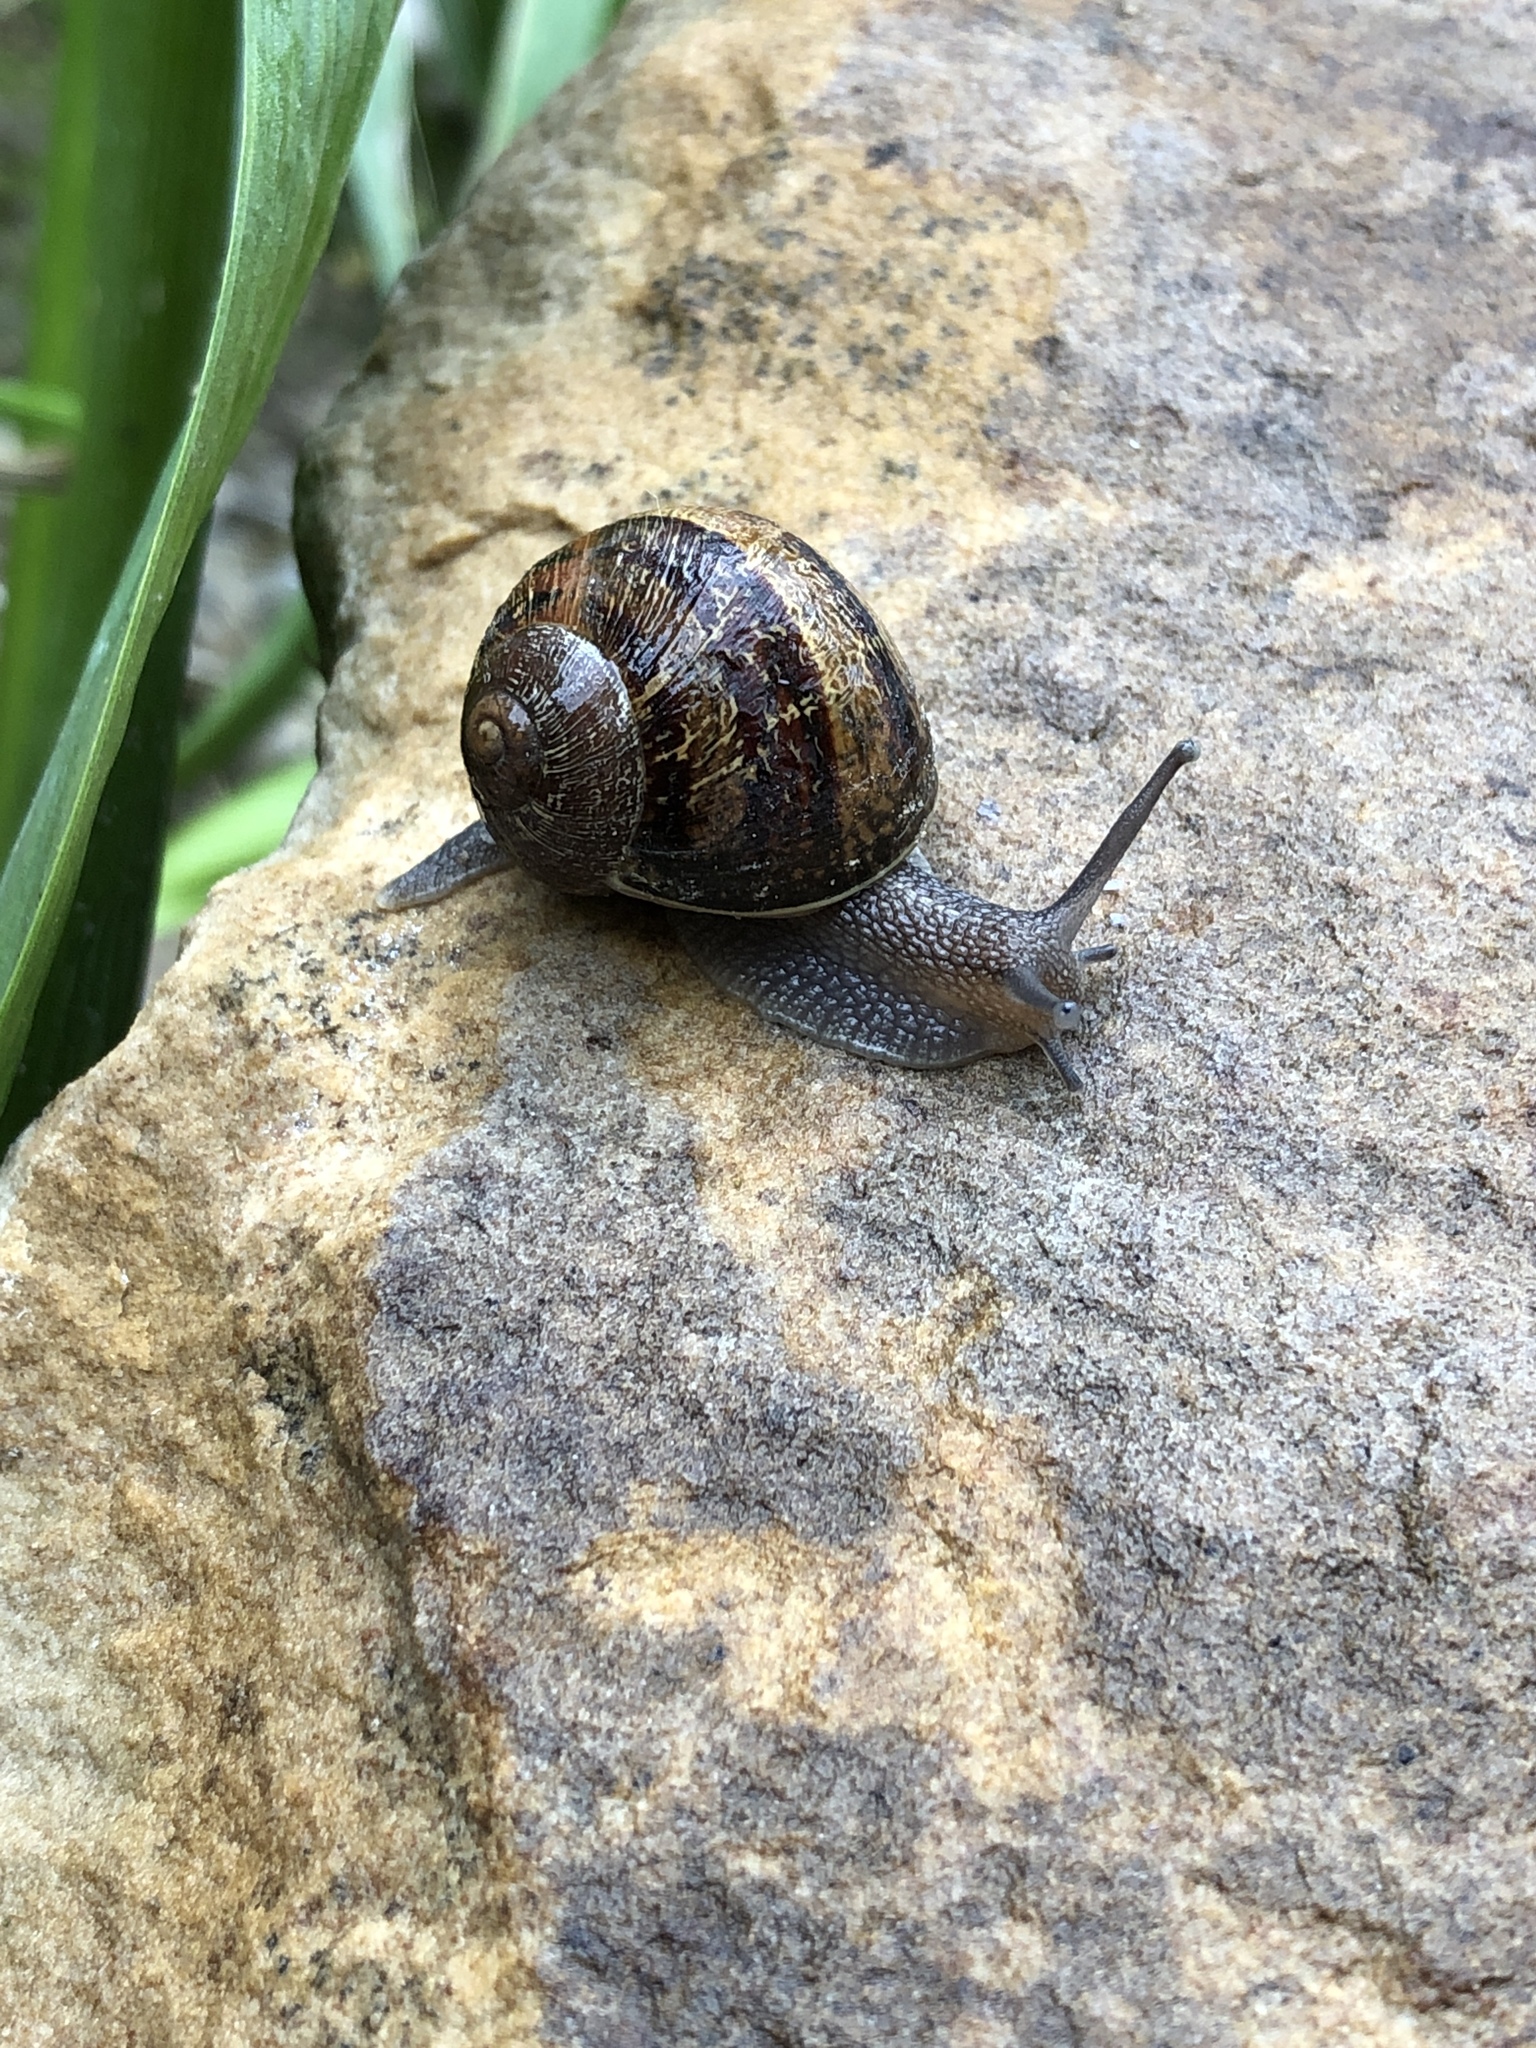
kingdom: Animalia
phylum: Mollusca
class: Gastropoda
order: Stylommatophora
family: Helicidae
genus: Cornu
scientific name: Cornu aspersum
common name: Brown garden snail
